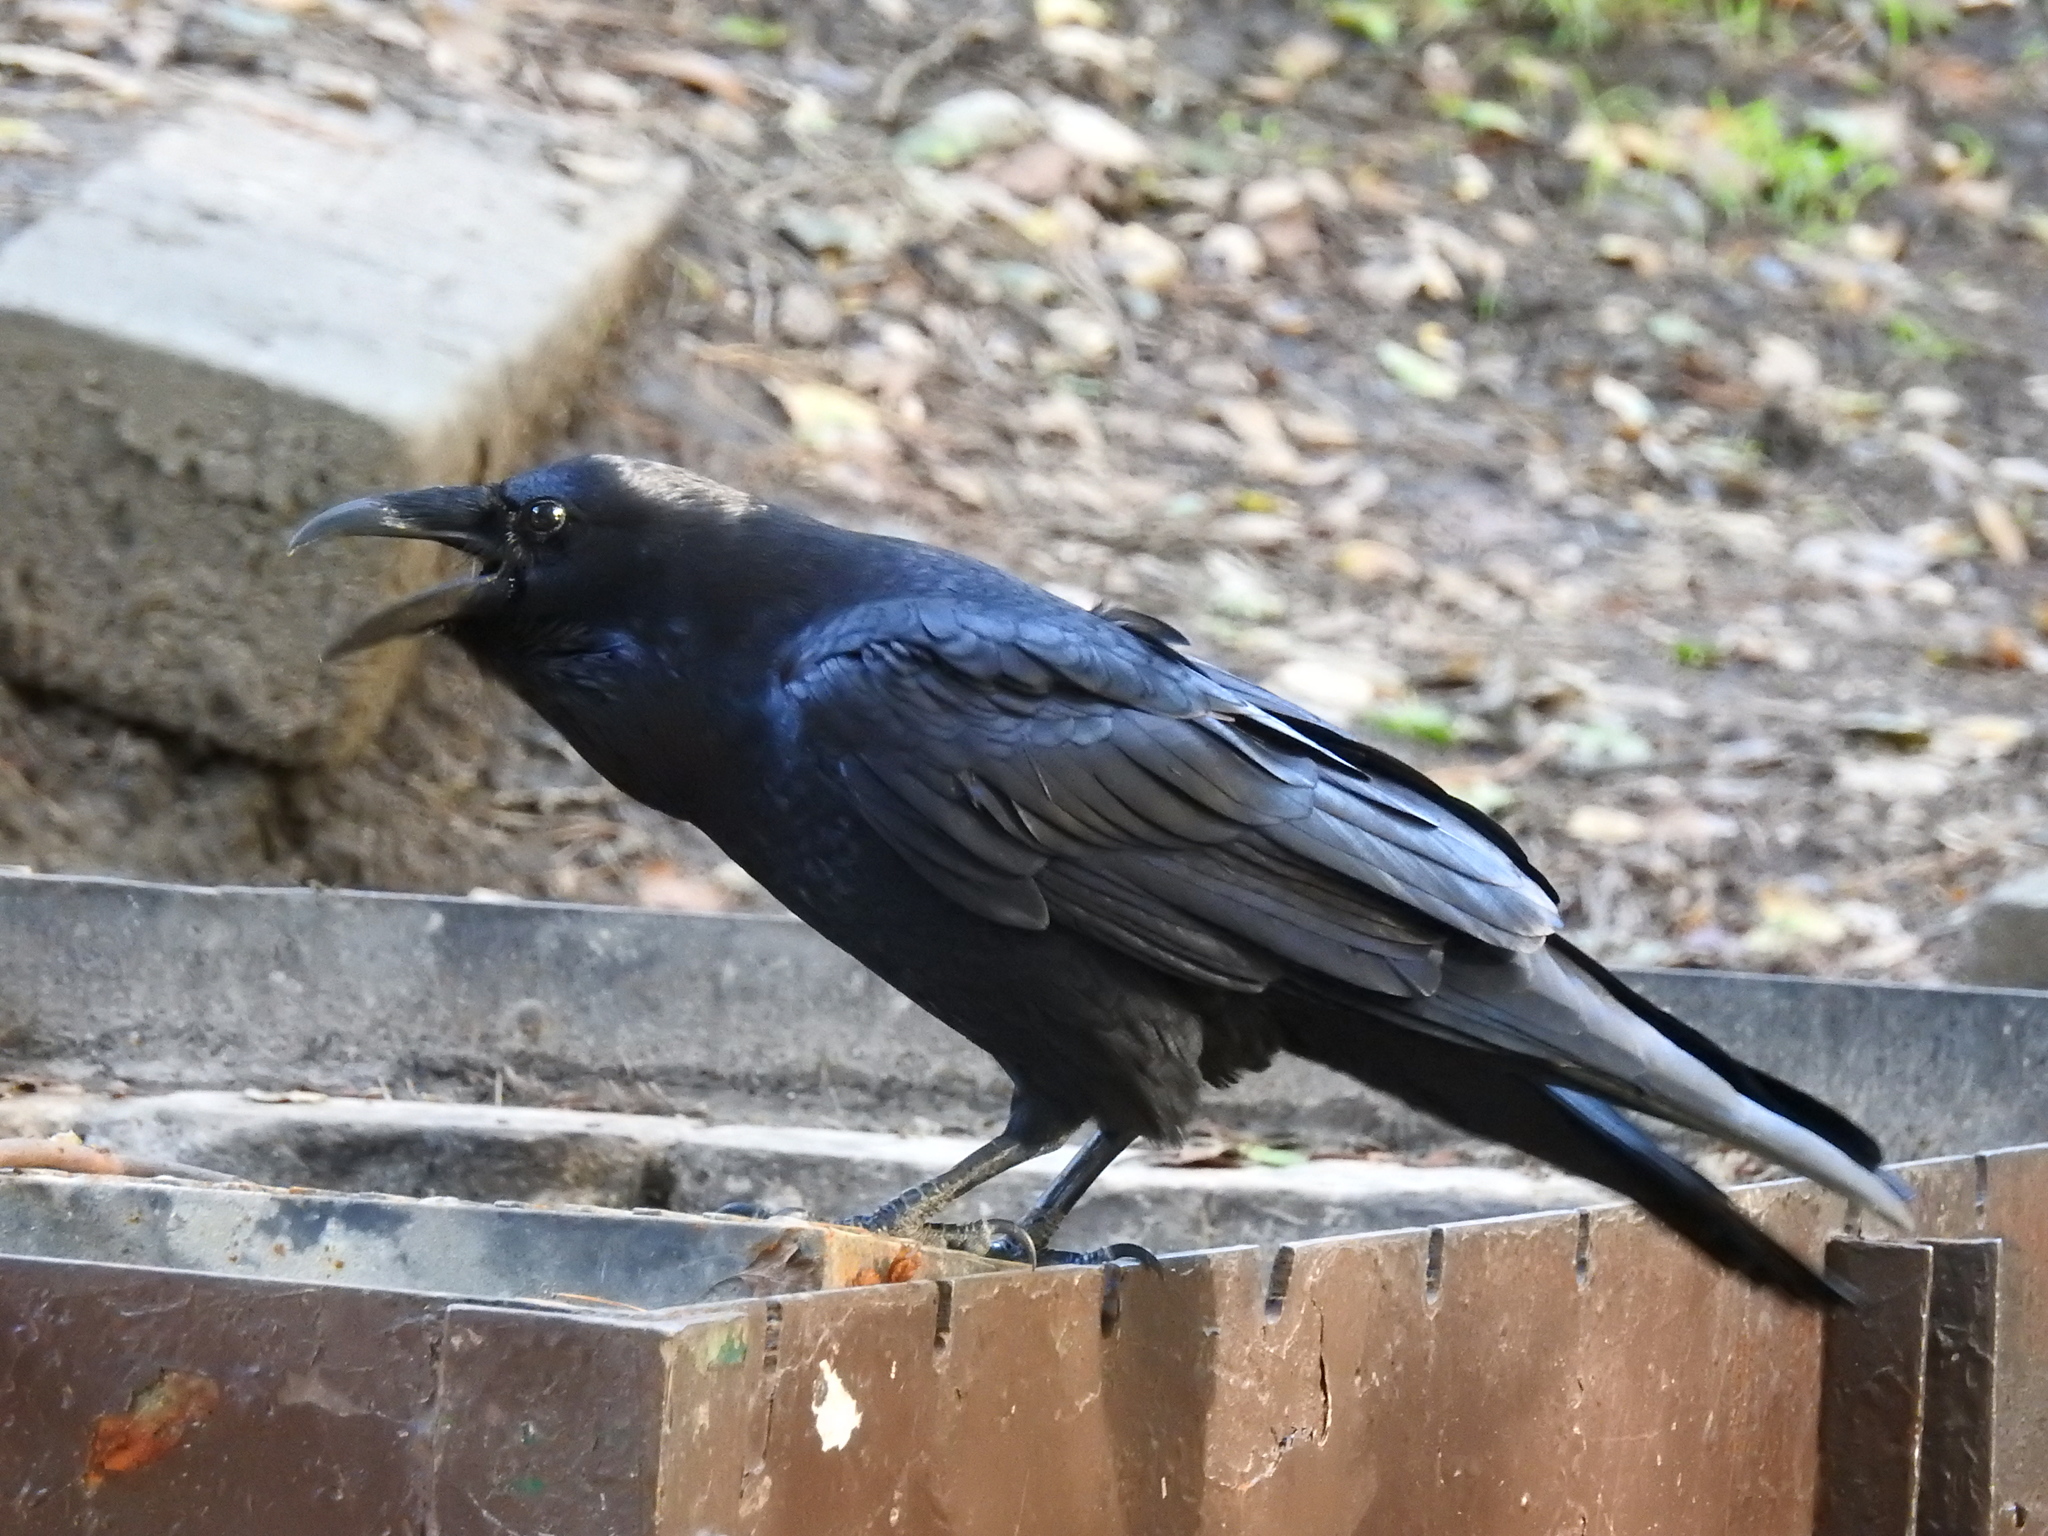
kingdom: Animalia
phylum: Chordata
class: Aves
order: Passeriformes
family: Corvidae
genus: Corvus
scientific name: Corvus corax
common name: Common raven
